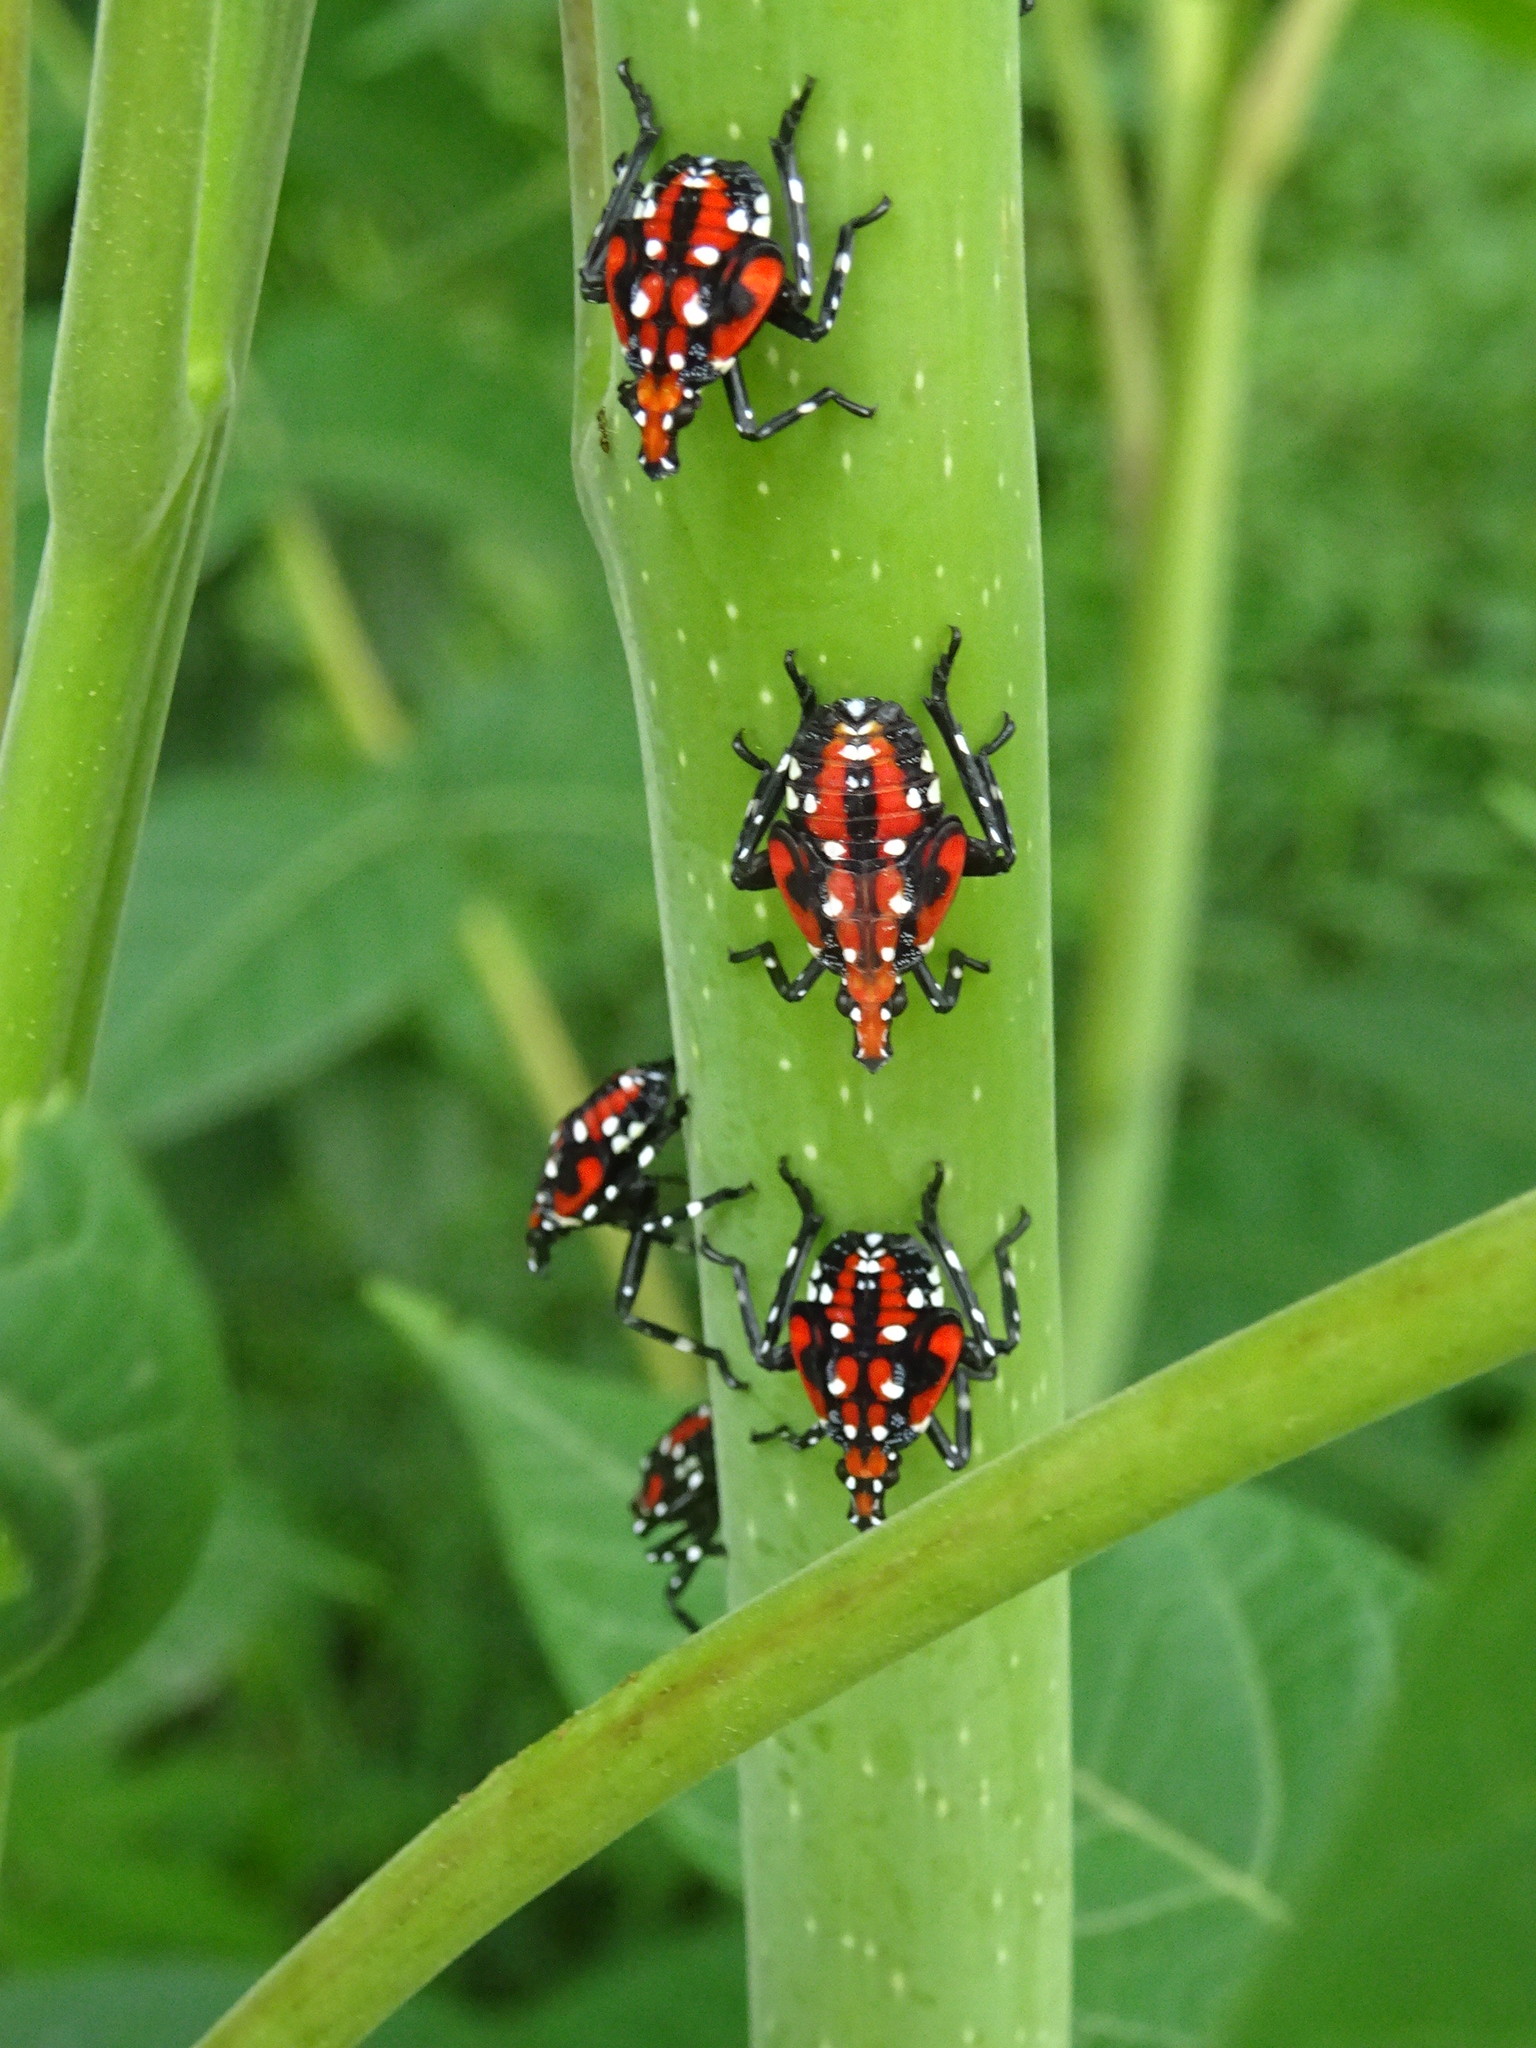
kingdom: Animalia
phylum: Arthropoda
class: Insecta
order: Hemiptera
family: Fulgoridae
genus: Lycorma
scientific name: Lycorma delicatula
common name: Spotted lanternfly
